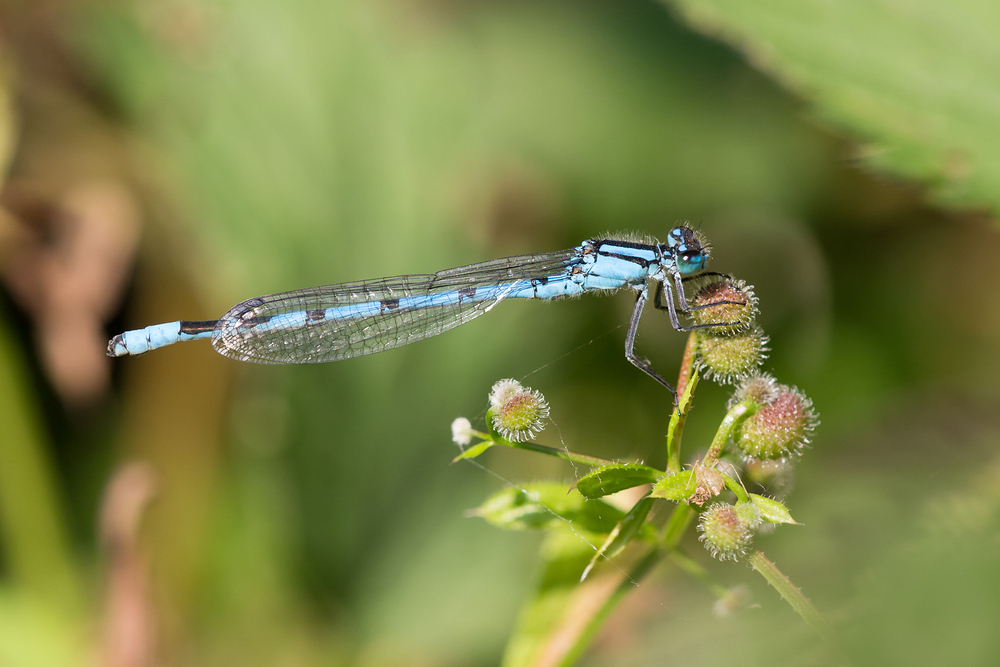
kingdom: Animalia
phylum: Arthropoda
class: Insecta
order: Odonata
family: Coenagrionidae
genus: Enallagma
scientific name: Enallagma cyathigerum
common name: Common blue damselfly
